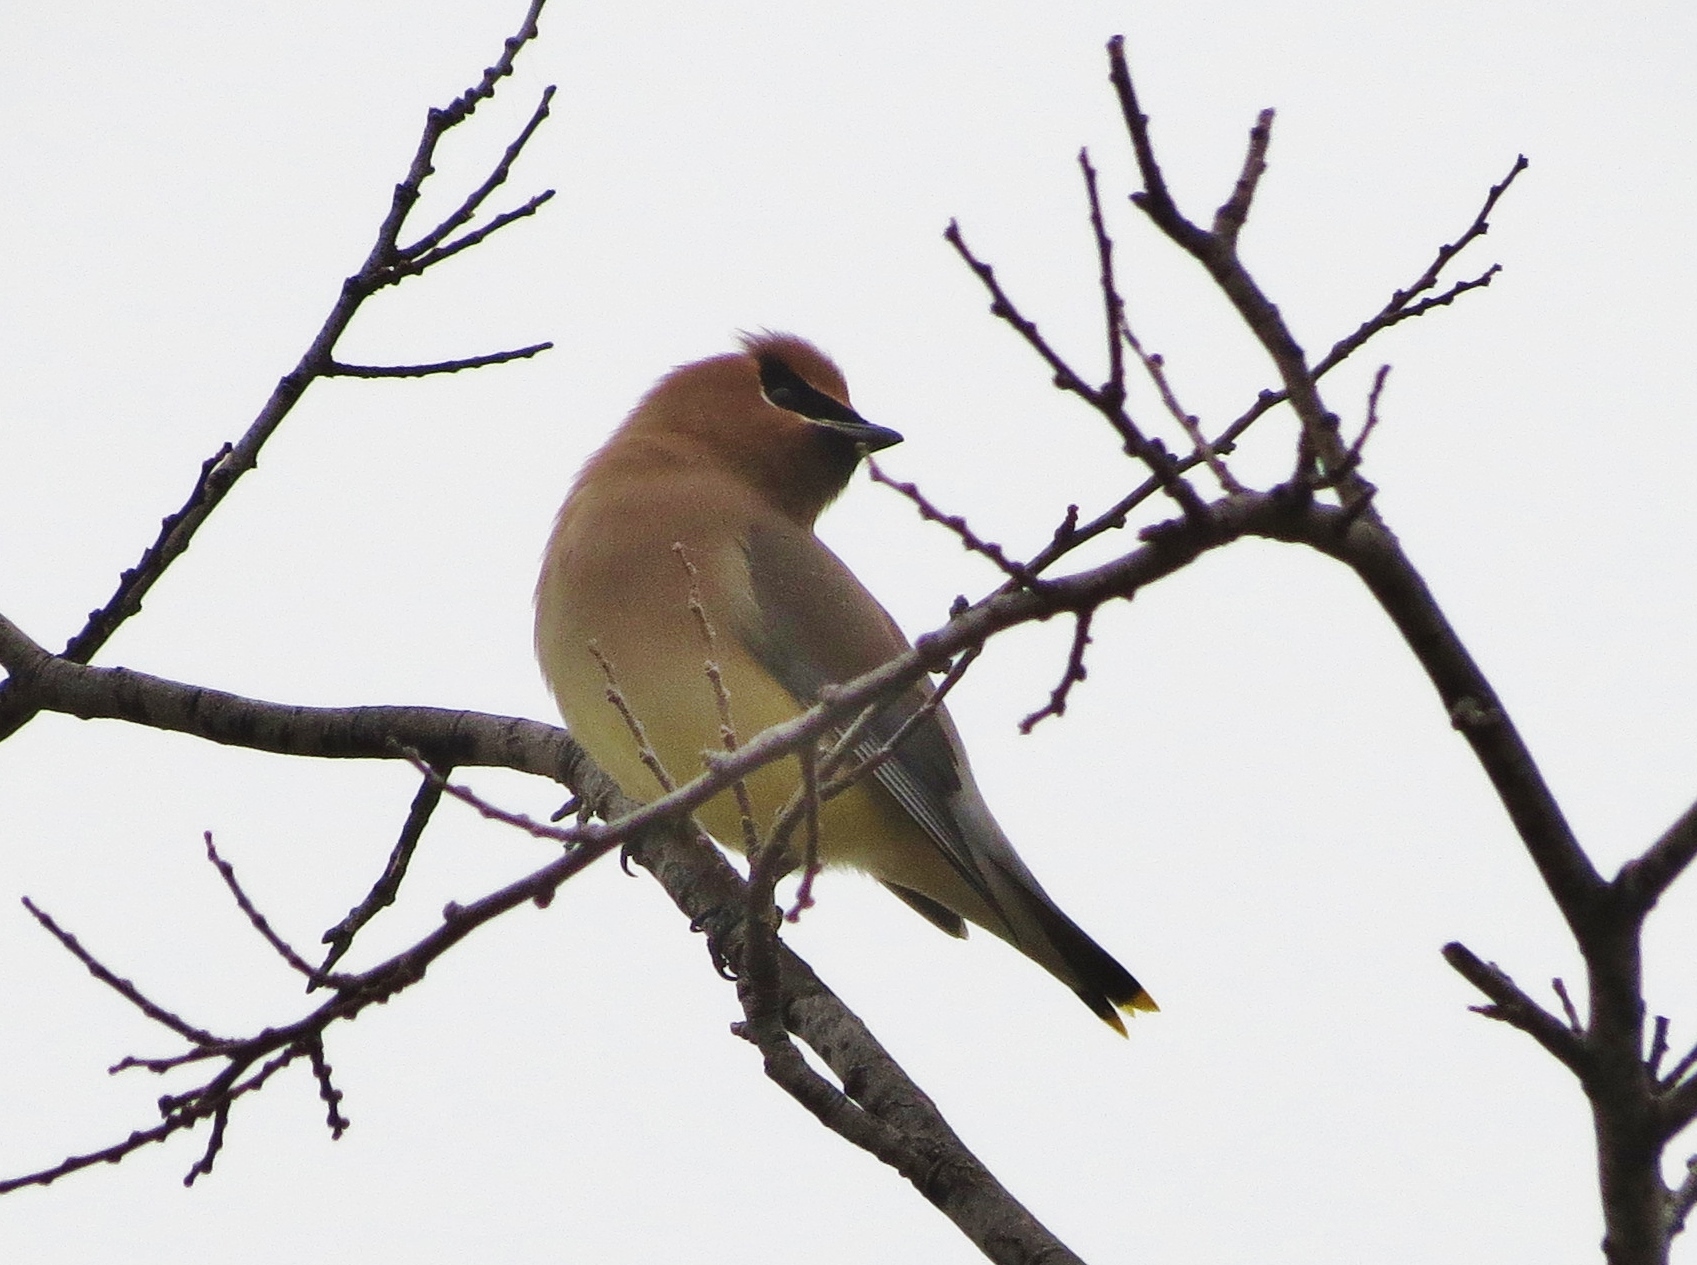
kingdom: Animalia
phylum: Chordata
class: Aves
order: Passeriformes
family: Bombycillidae
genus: Bombycilla
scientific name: Bombycilla cedrorum
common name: Cedar waxwing
